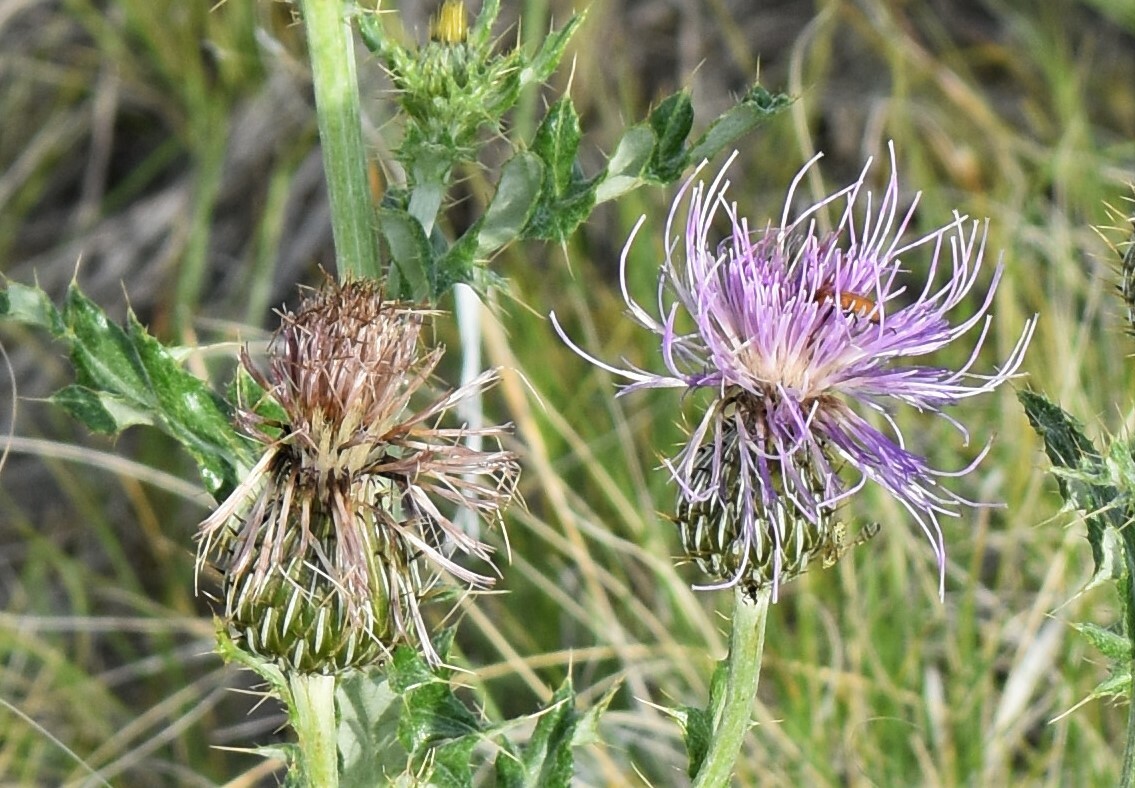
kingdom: Plantae
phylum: Tracheophyta
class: Magnoliopsida
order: Asterales
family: Asteraceae
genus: Cirsium
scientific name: Cirsium undulatum
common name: Pasture thistle
